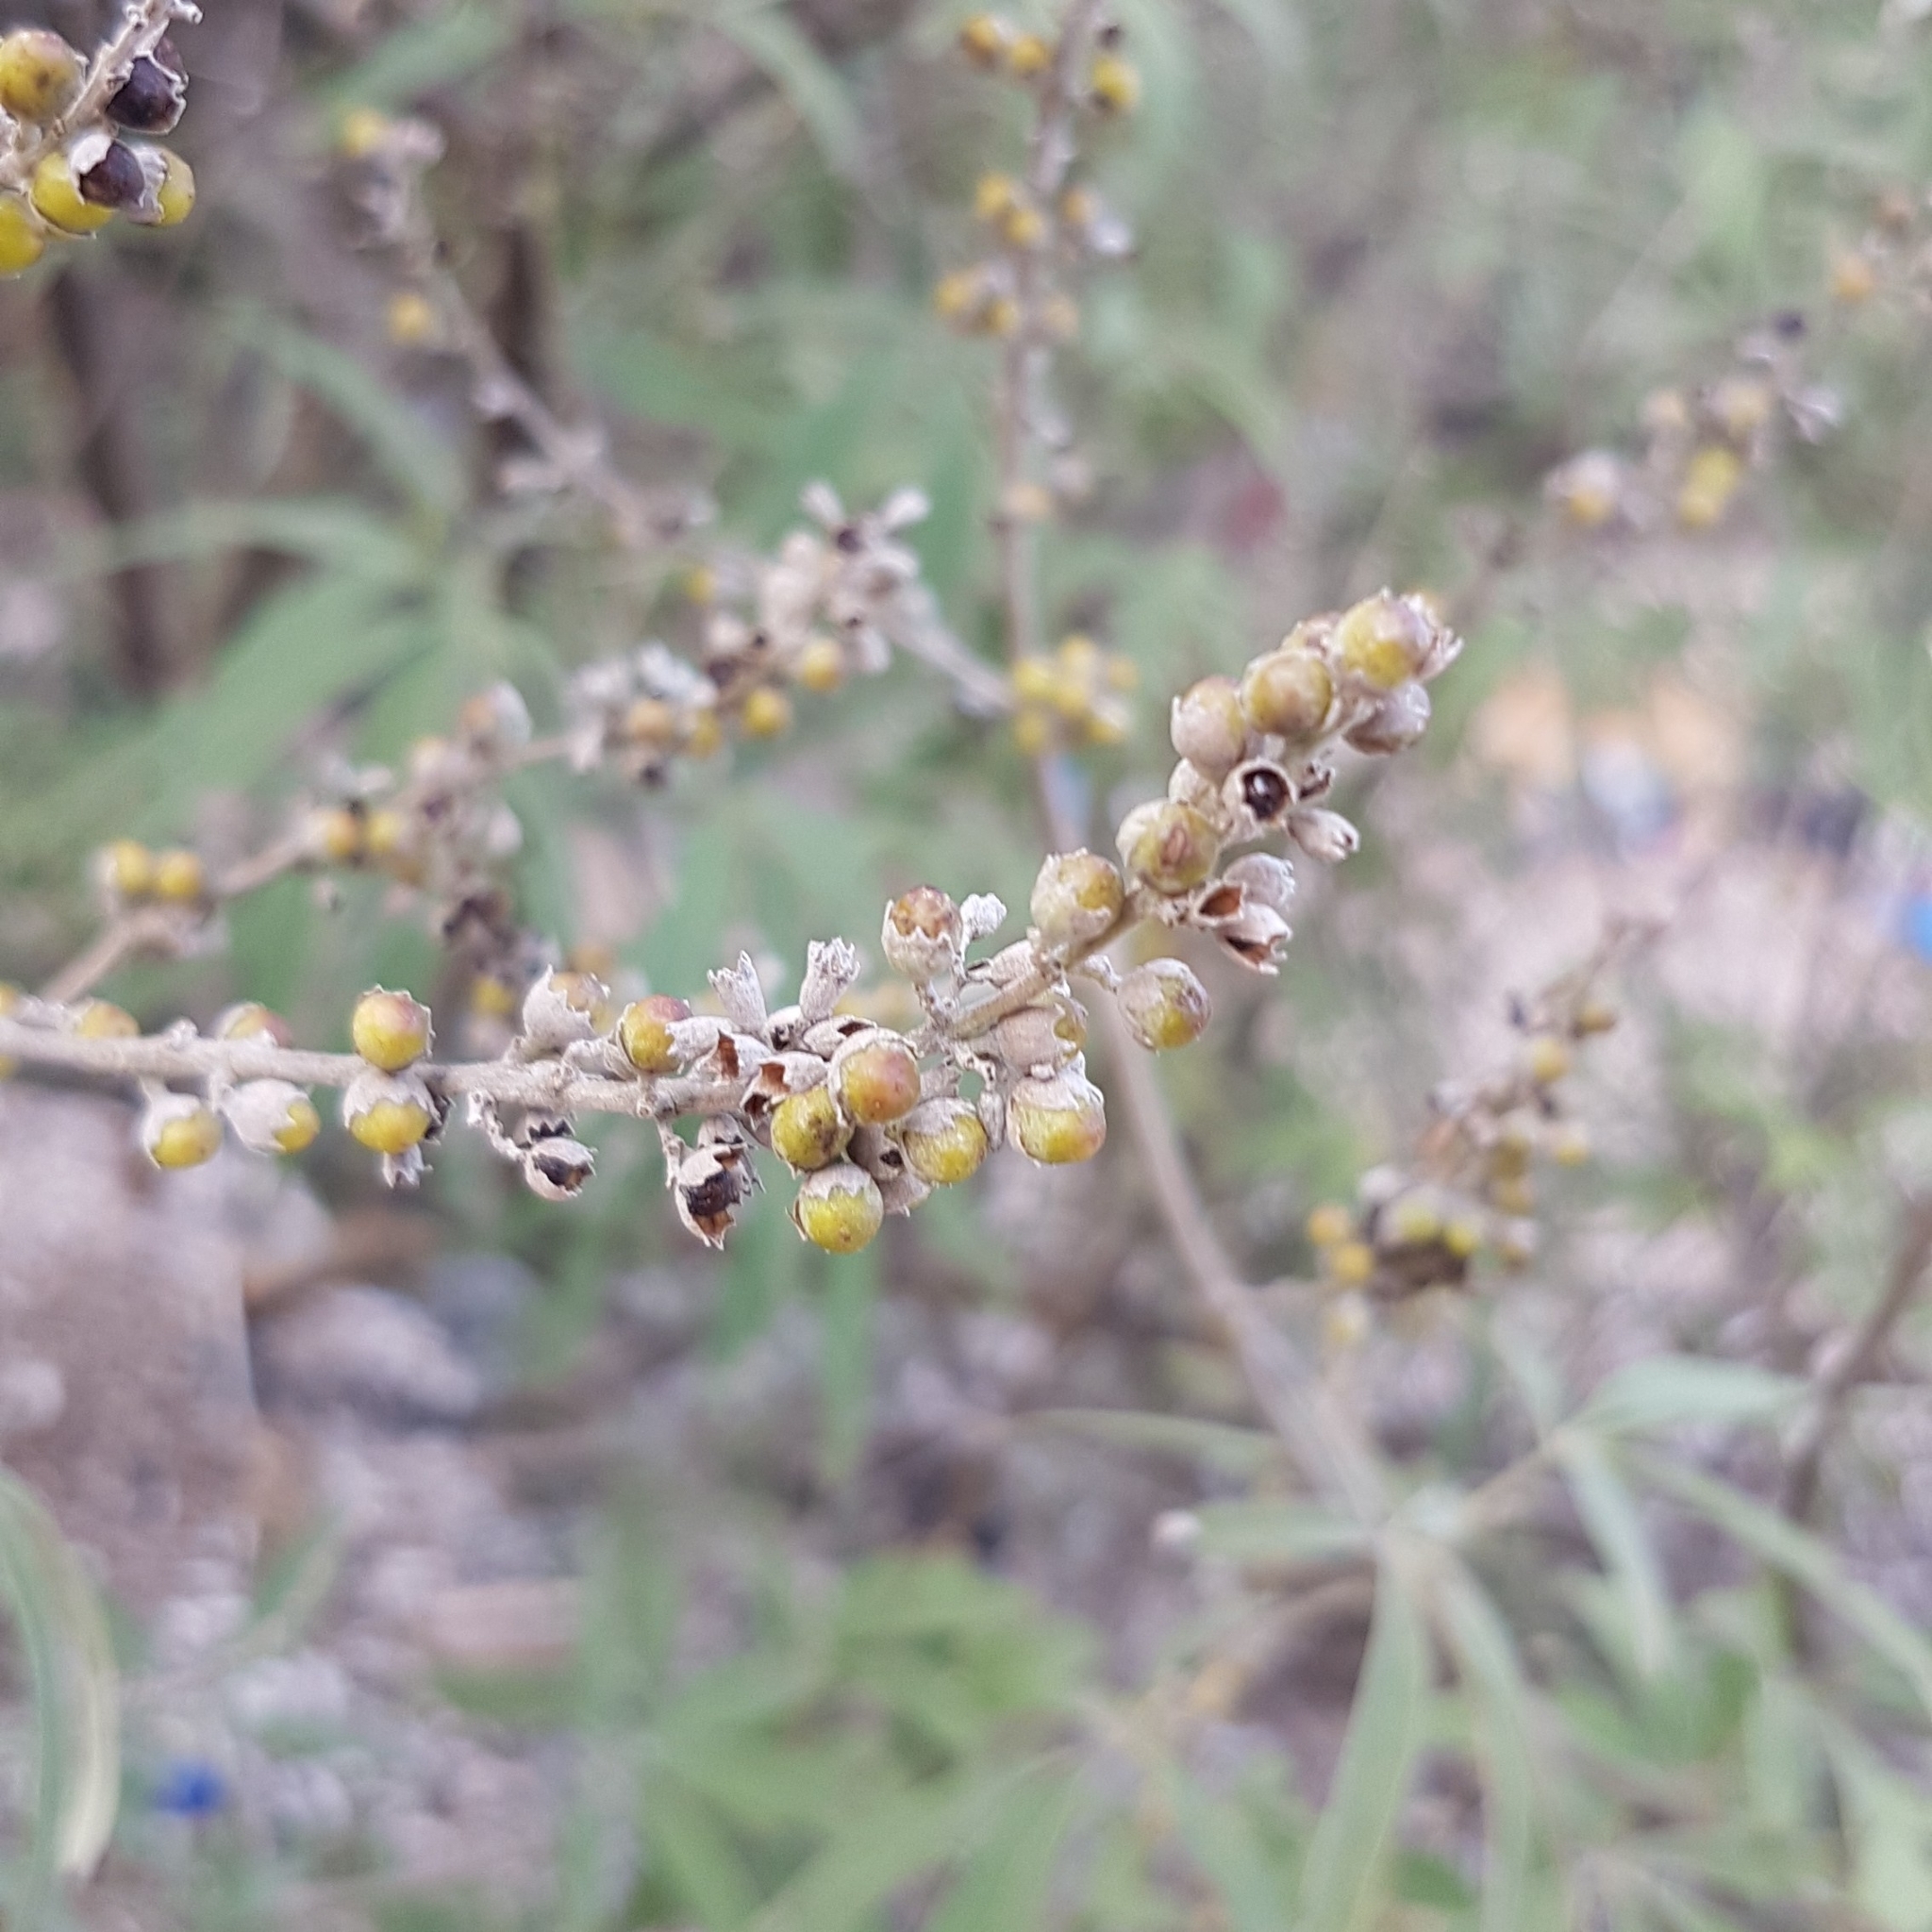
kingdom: Plantae
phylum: Tracheophyta
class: Magnoliopsida
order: Lamiales
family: Lamiaceae
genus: Vitex
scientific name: Vitex agnus-castus
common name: Chasteberry
